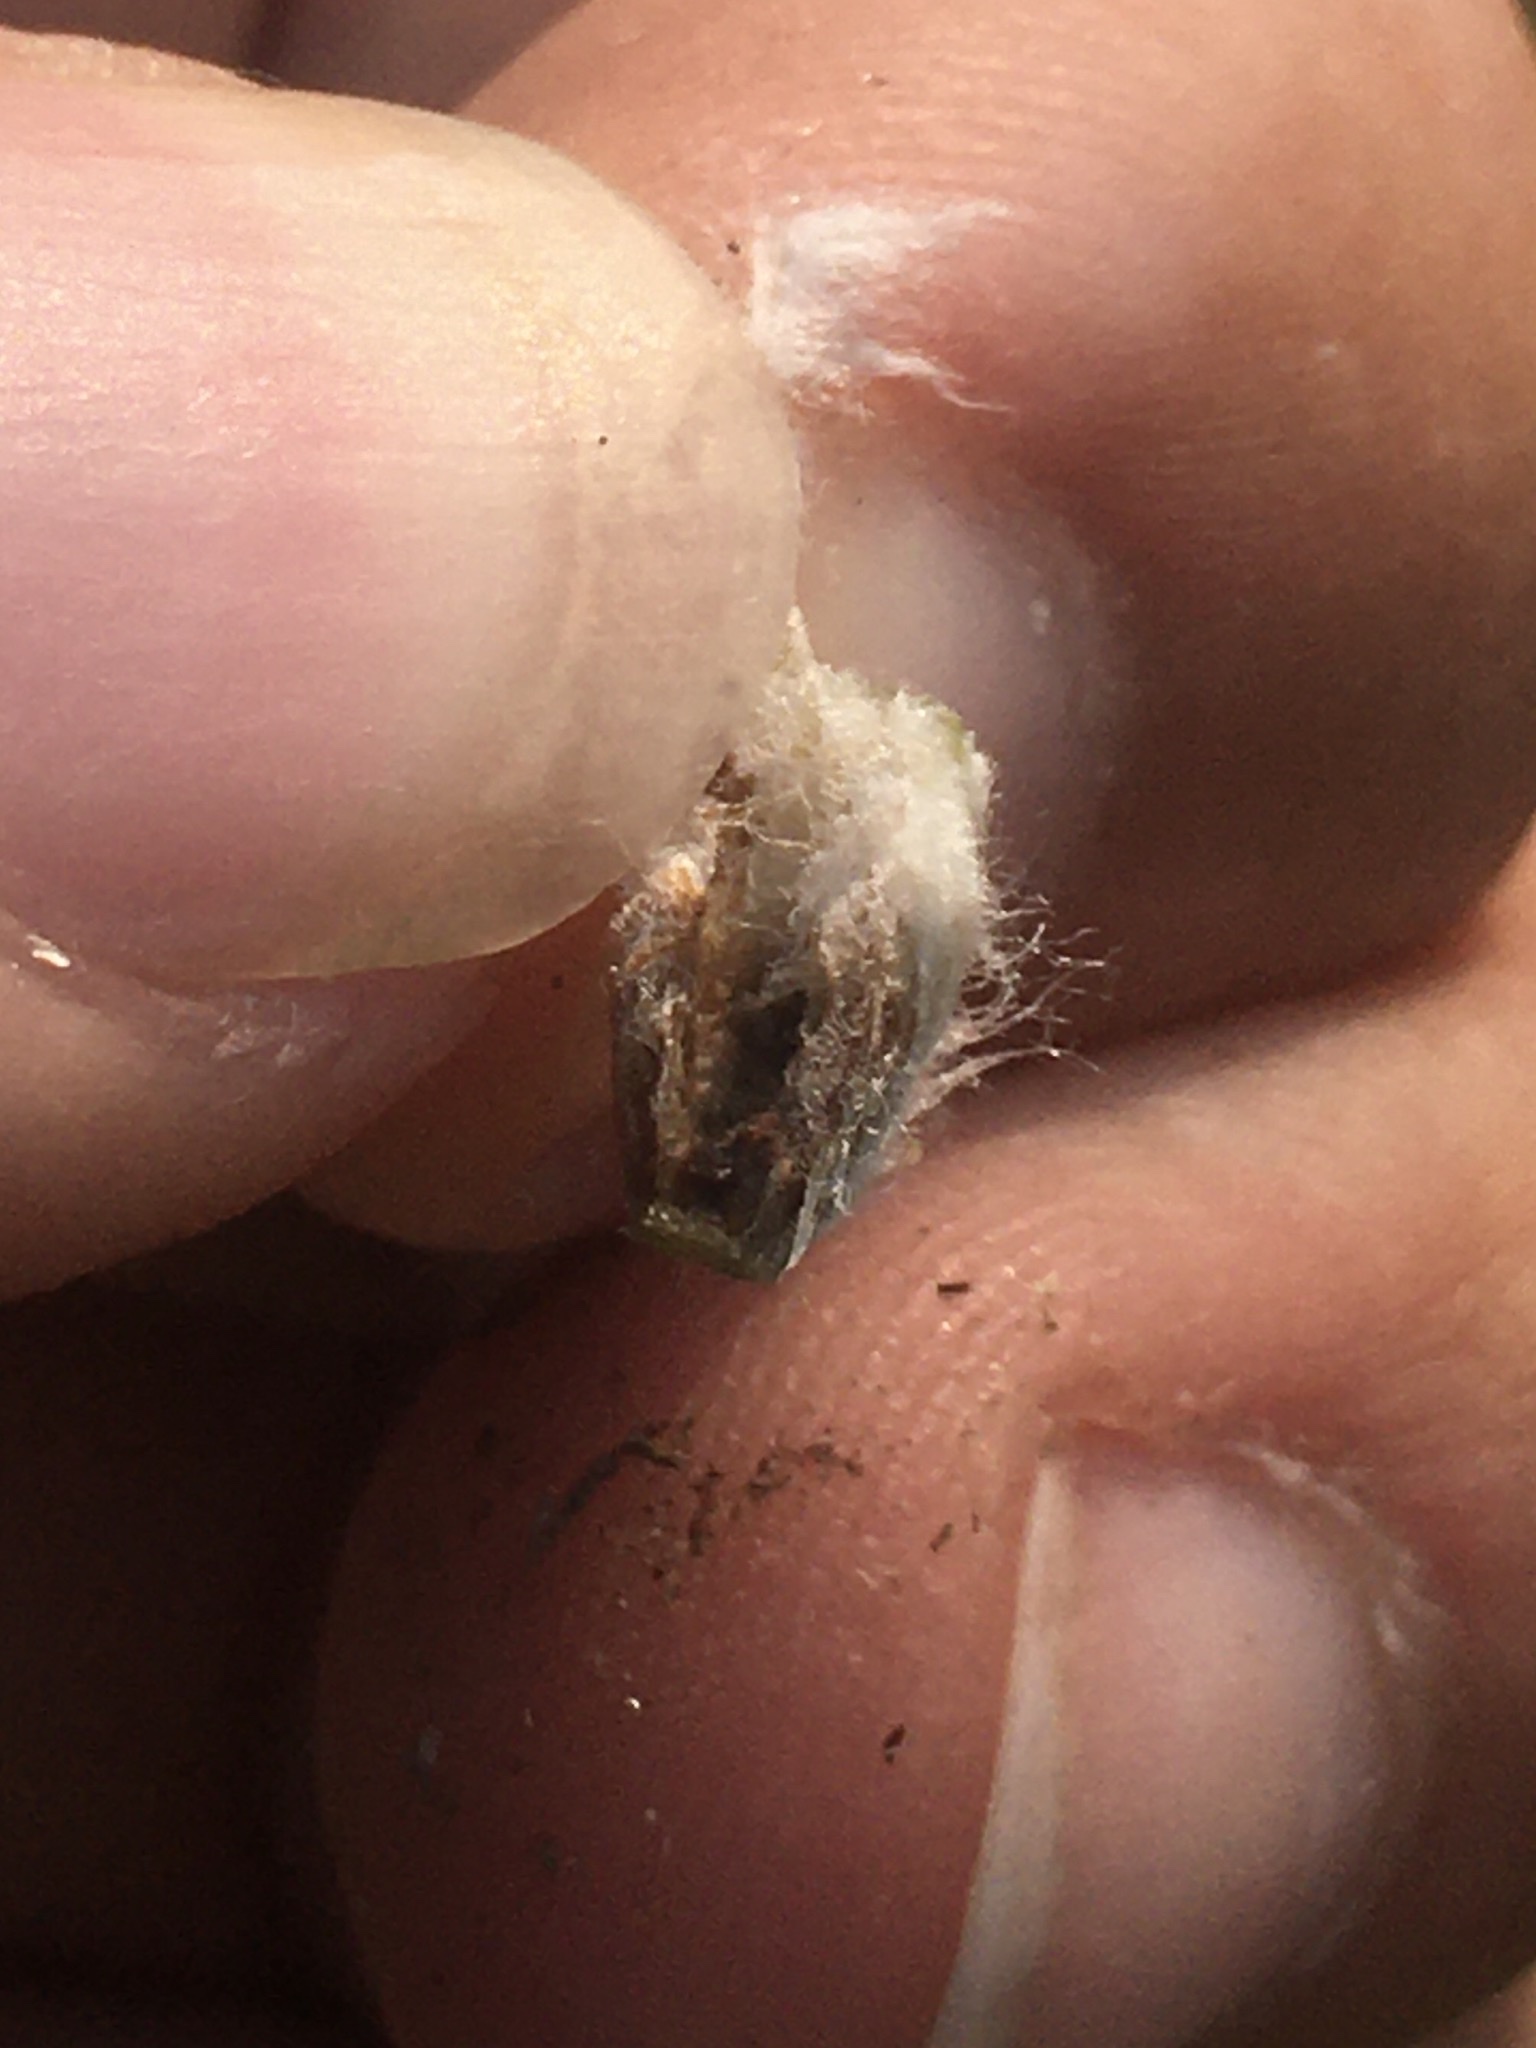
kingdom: Animalia
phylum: Arthropoda
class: Insecta
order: Diptera
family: Cecidomyiidae
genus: Asphondylia
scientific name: Asphondylia antennariae
